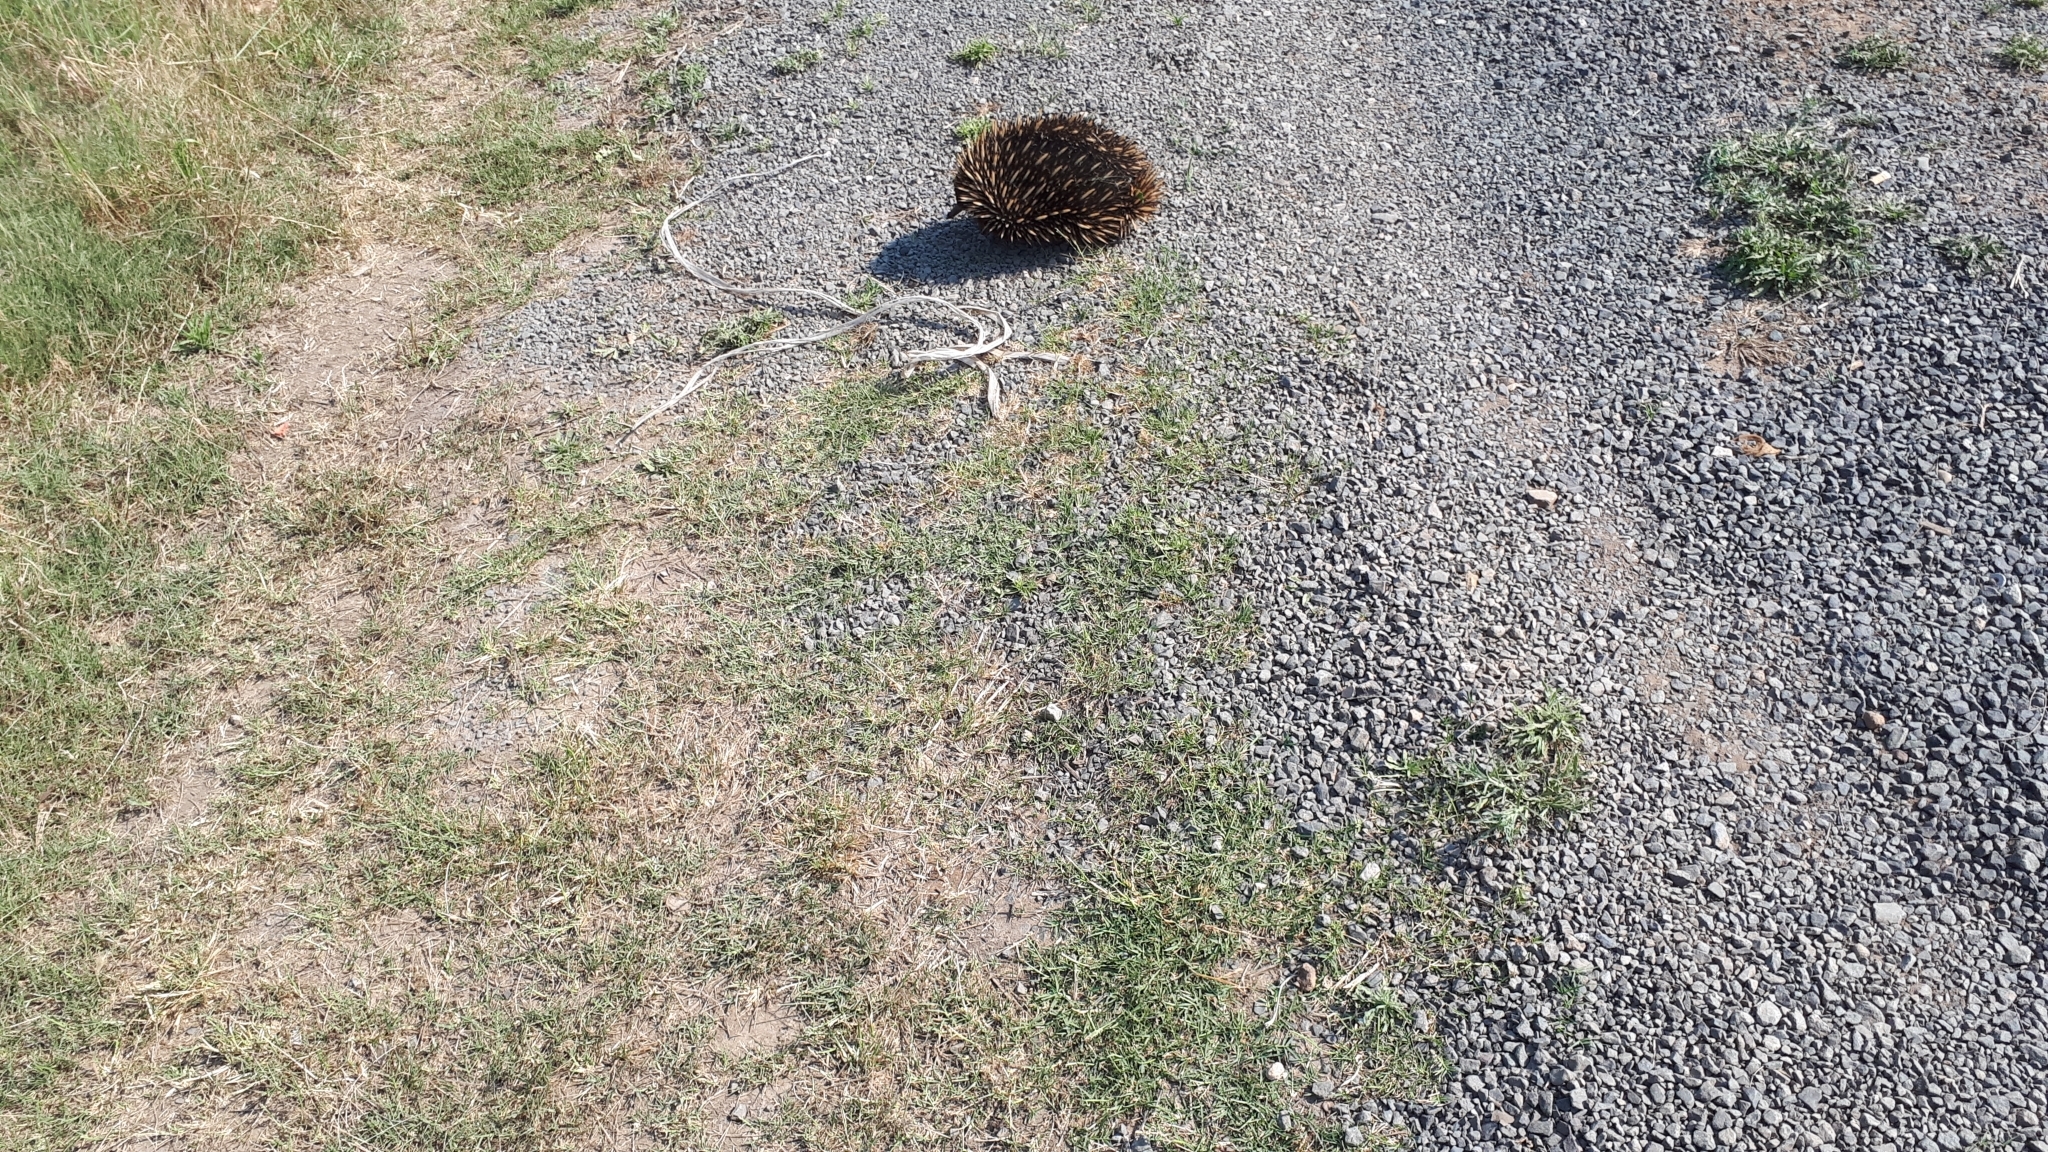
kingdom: Animalia
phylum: Chordata
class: Mammalia
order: Monotremata
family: Tachyglossidae
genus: Tachyglossus
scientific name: Tachyglossus aculeatus
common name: Short-beaked echidna
